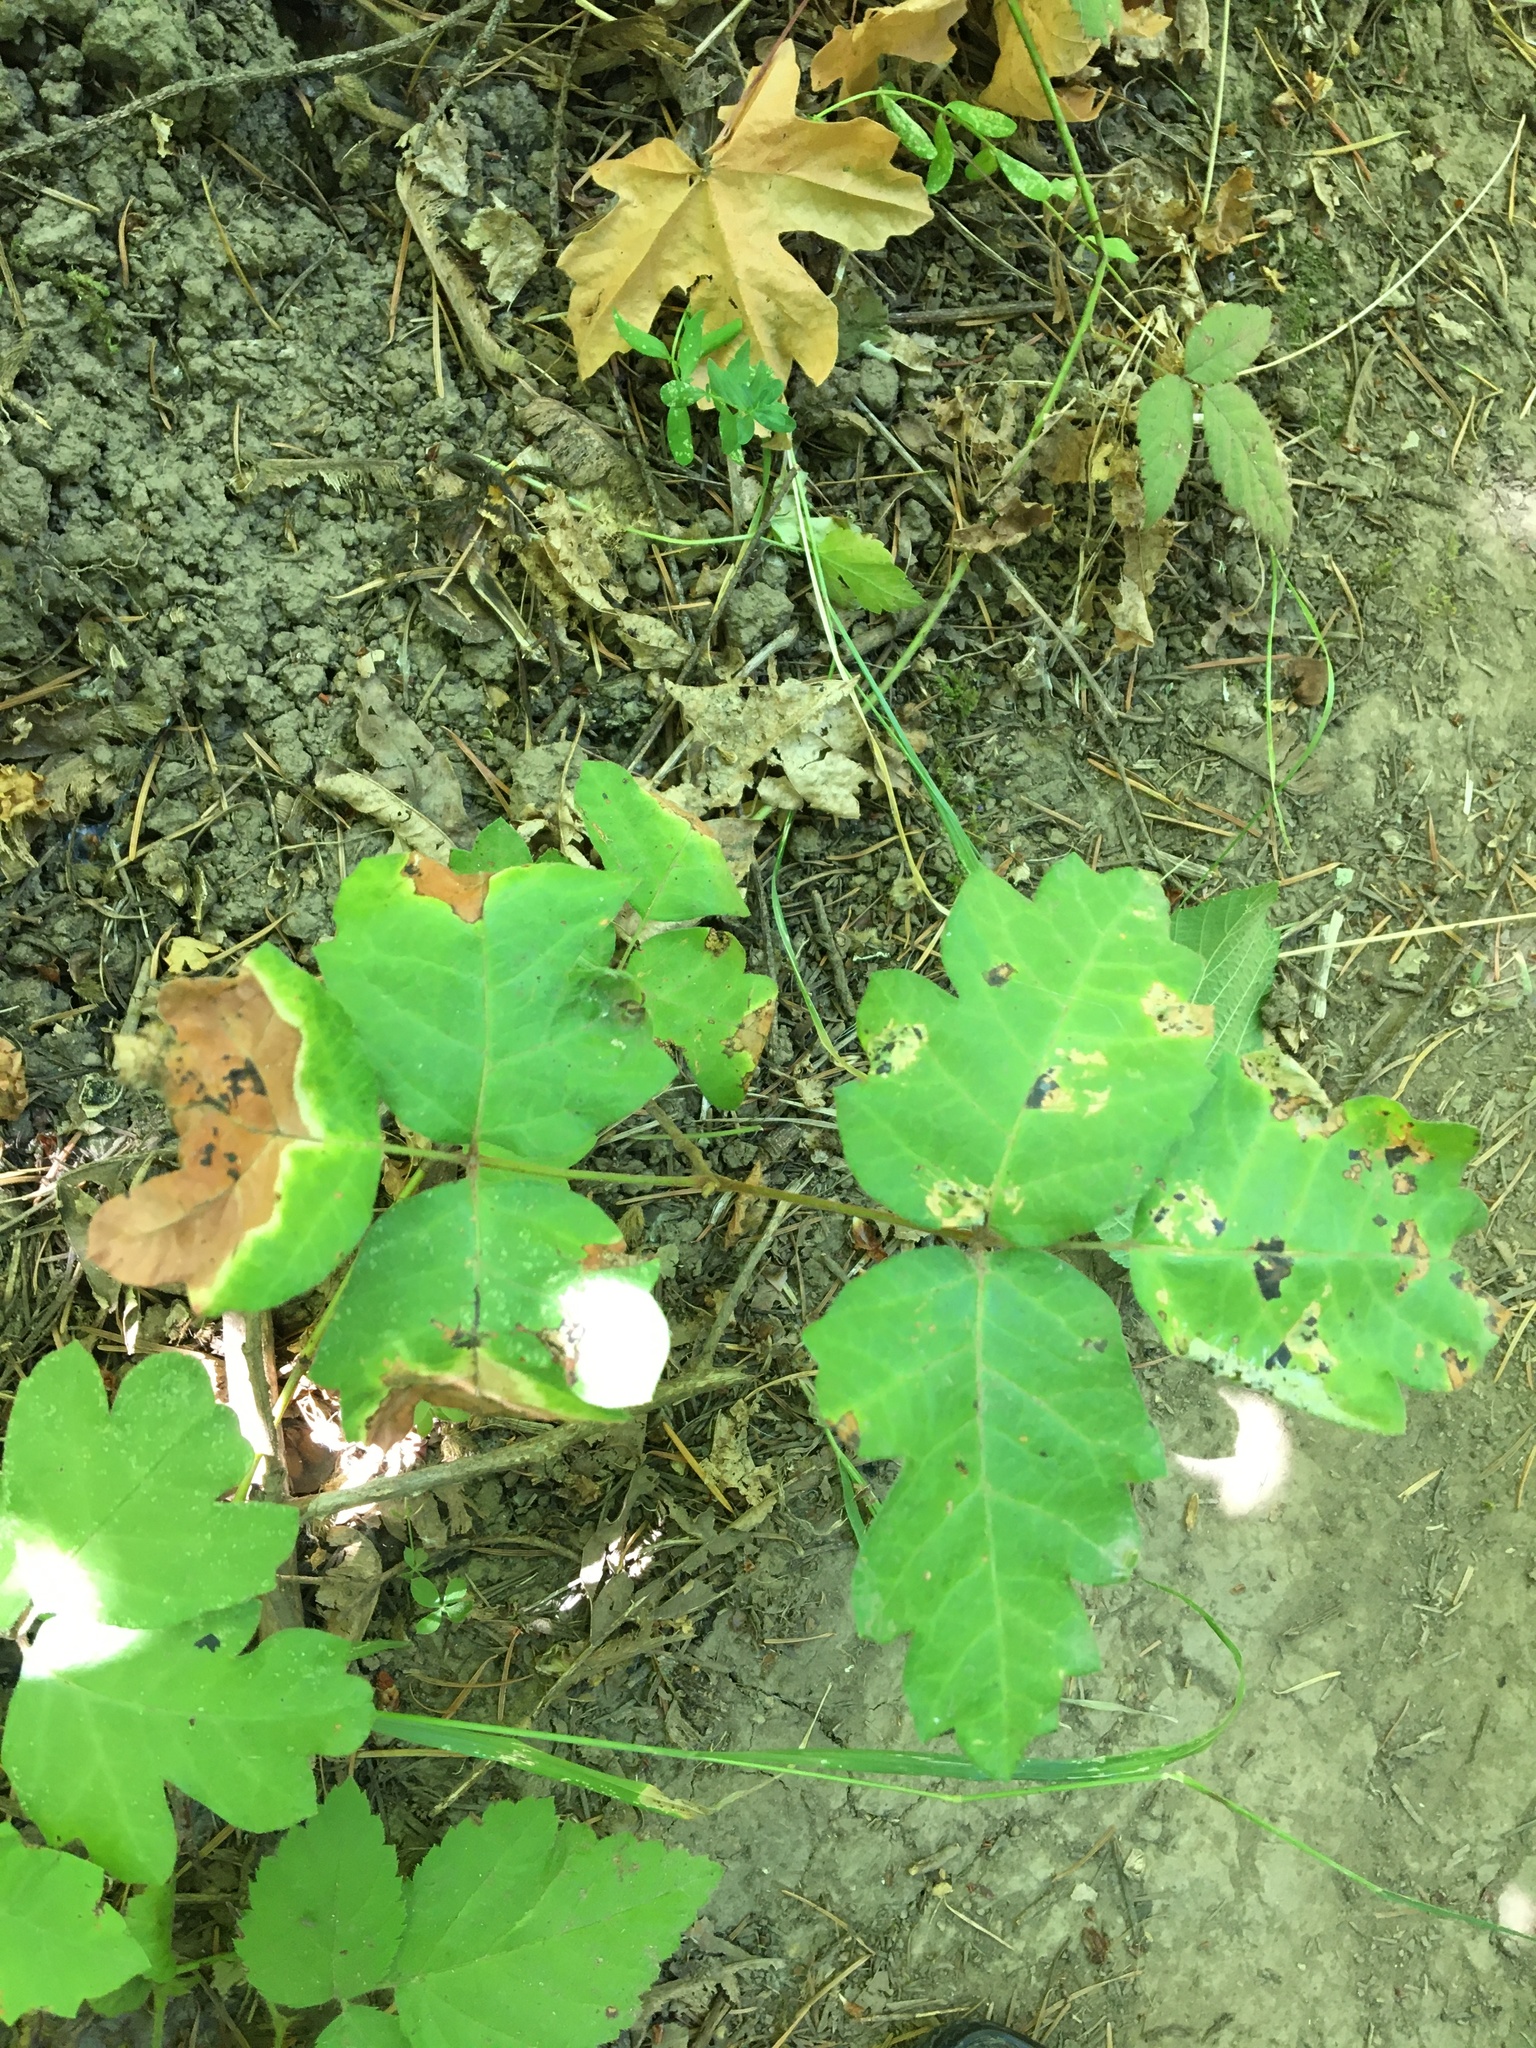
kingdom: Plantae
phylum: Tracheophyta
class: Magnoliopsida
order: Sapindales
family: Anacardiaceae
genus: Toxicodendron
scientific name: Toxicodendron diversilobum
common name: Pacific poison-oak
